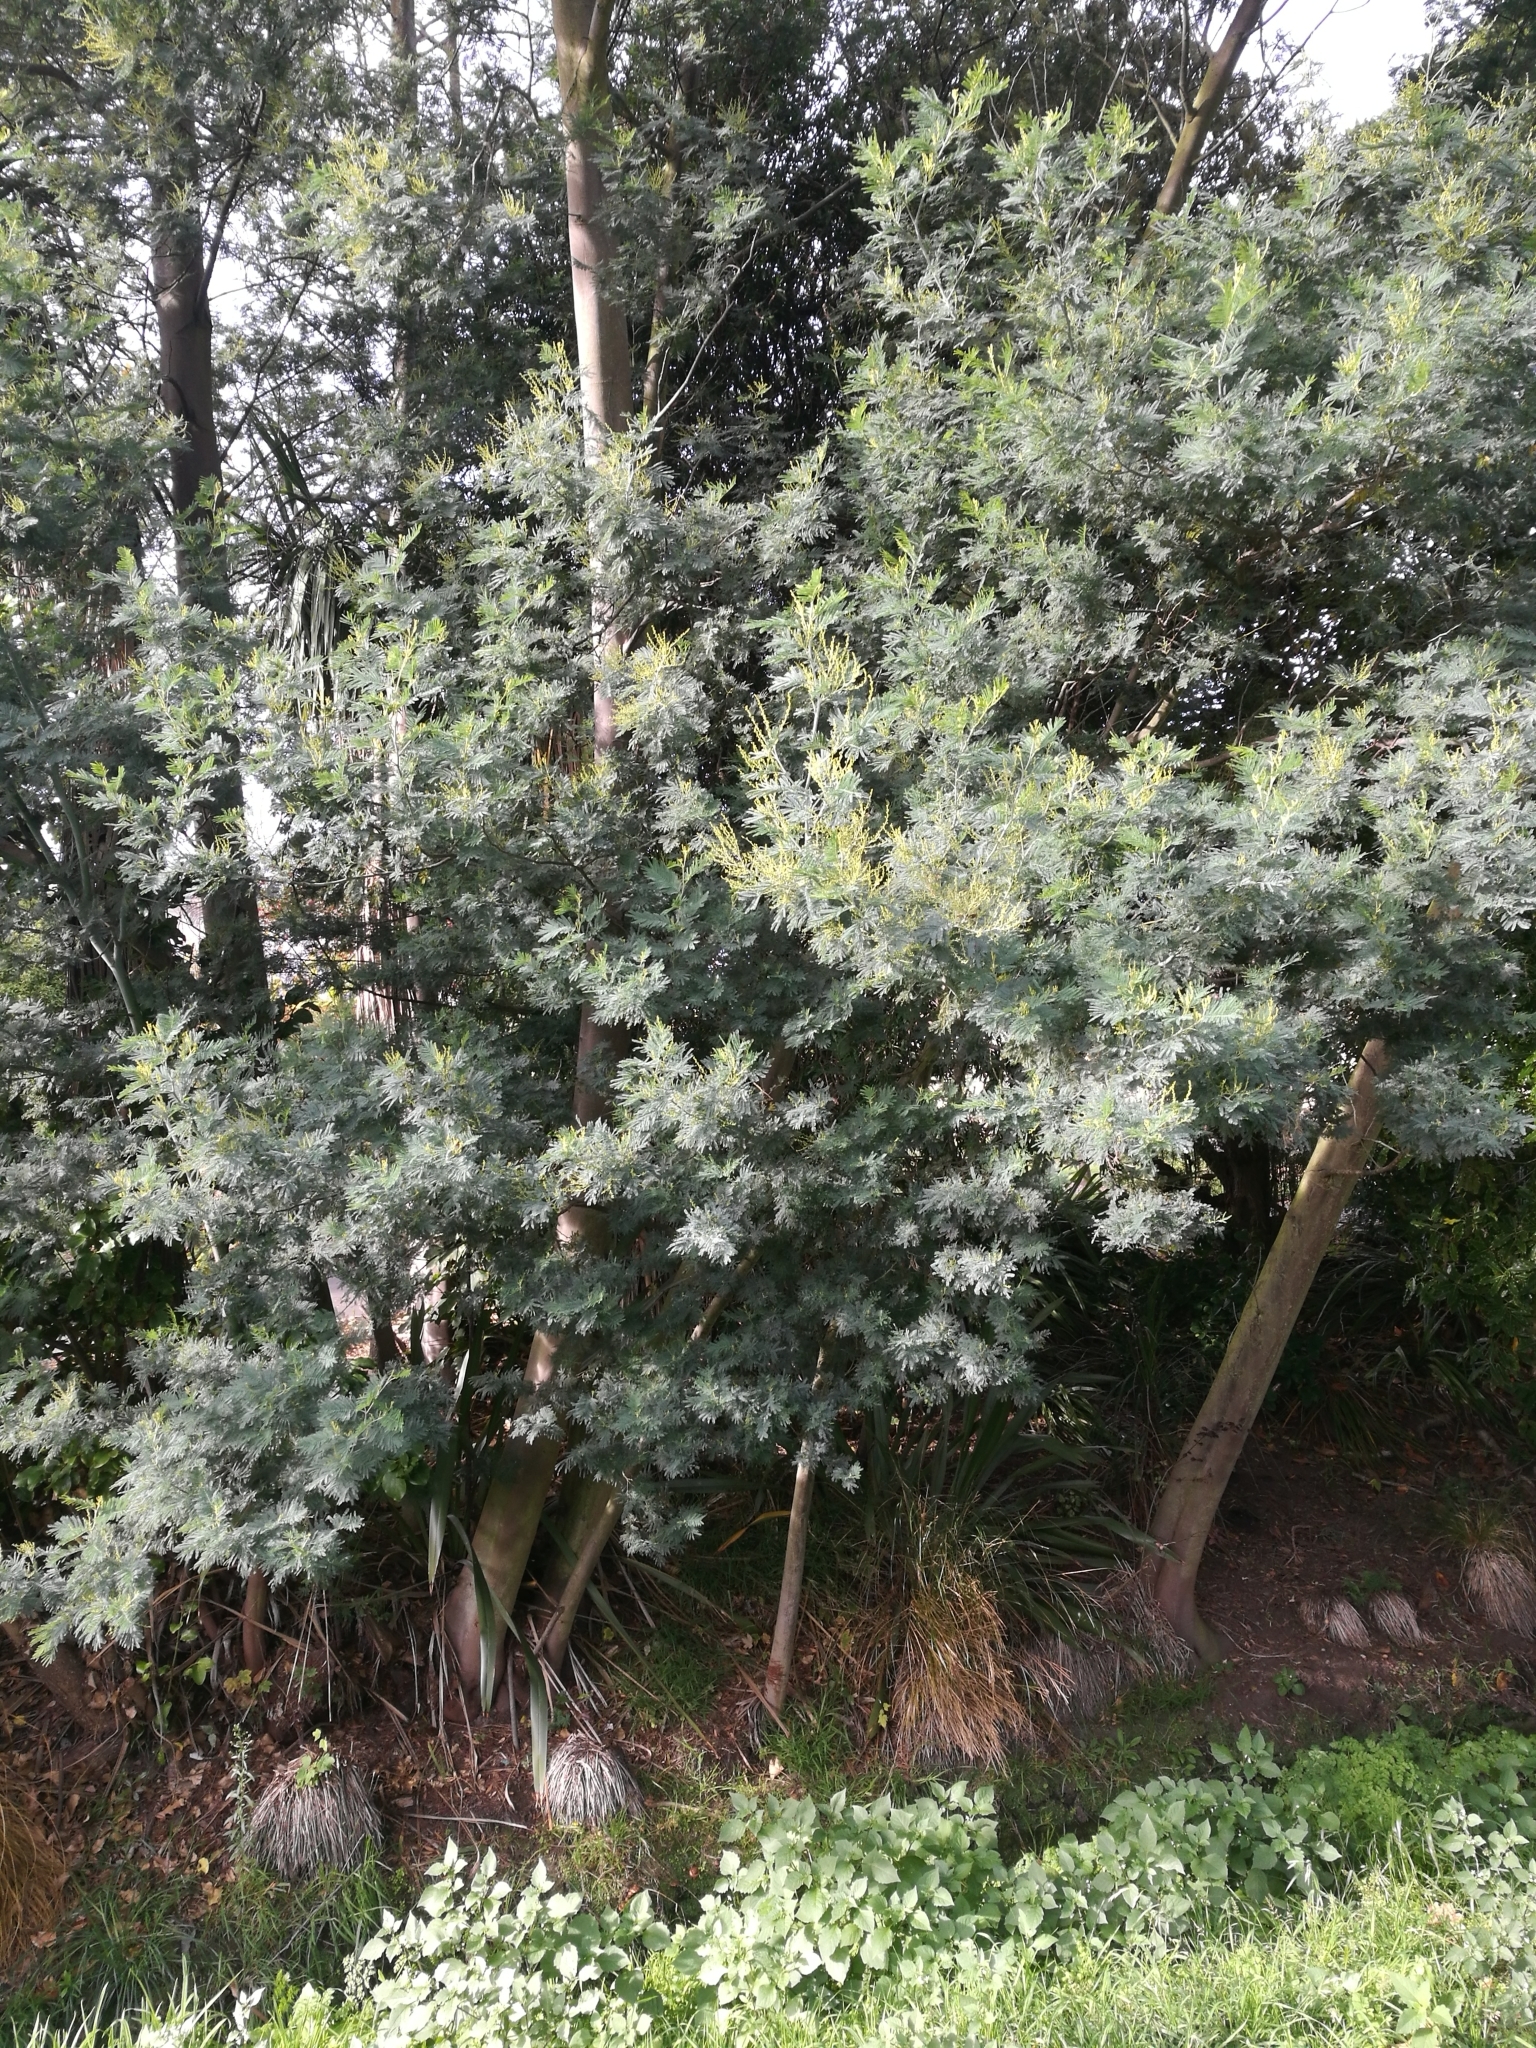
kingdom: Plantae
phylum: Tracheophyta
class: Magnoliopsida
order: Fabales
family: Fabaceae
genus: Acacia
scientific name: Acacia dealbata
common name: Silver wattle
